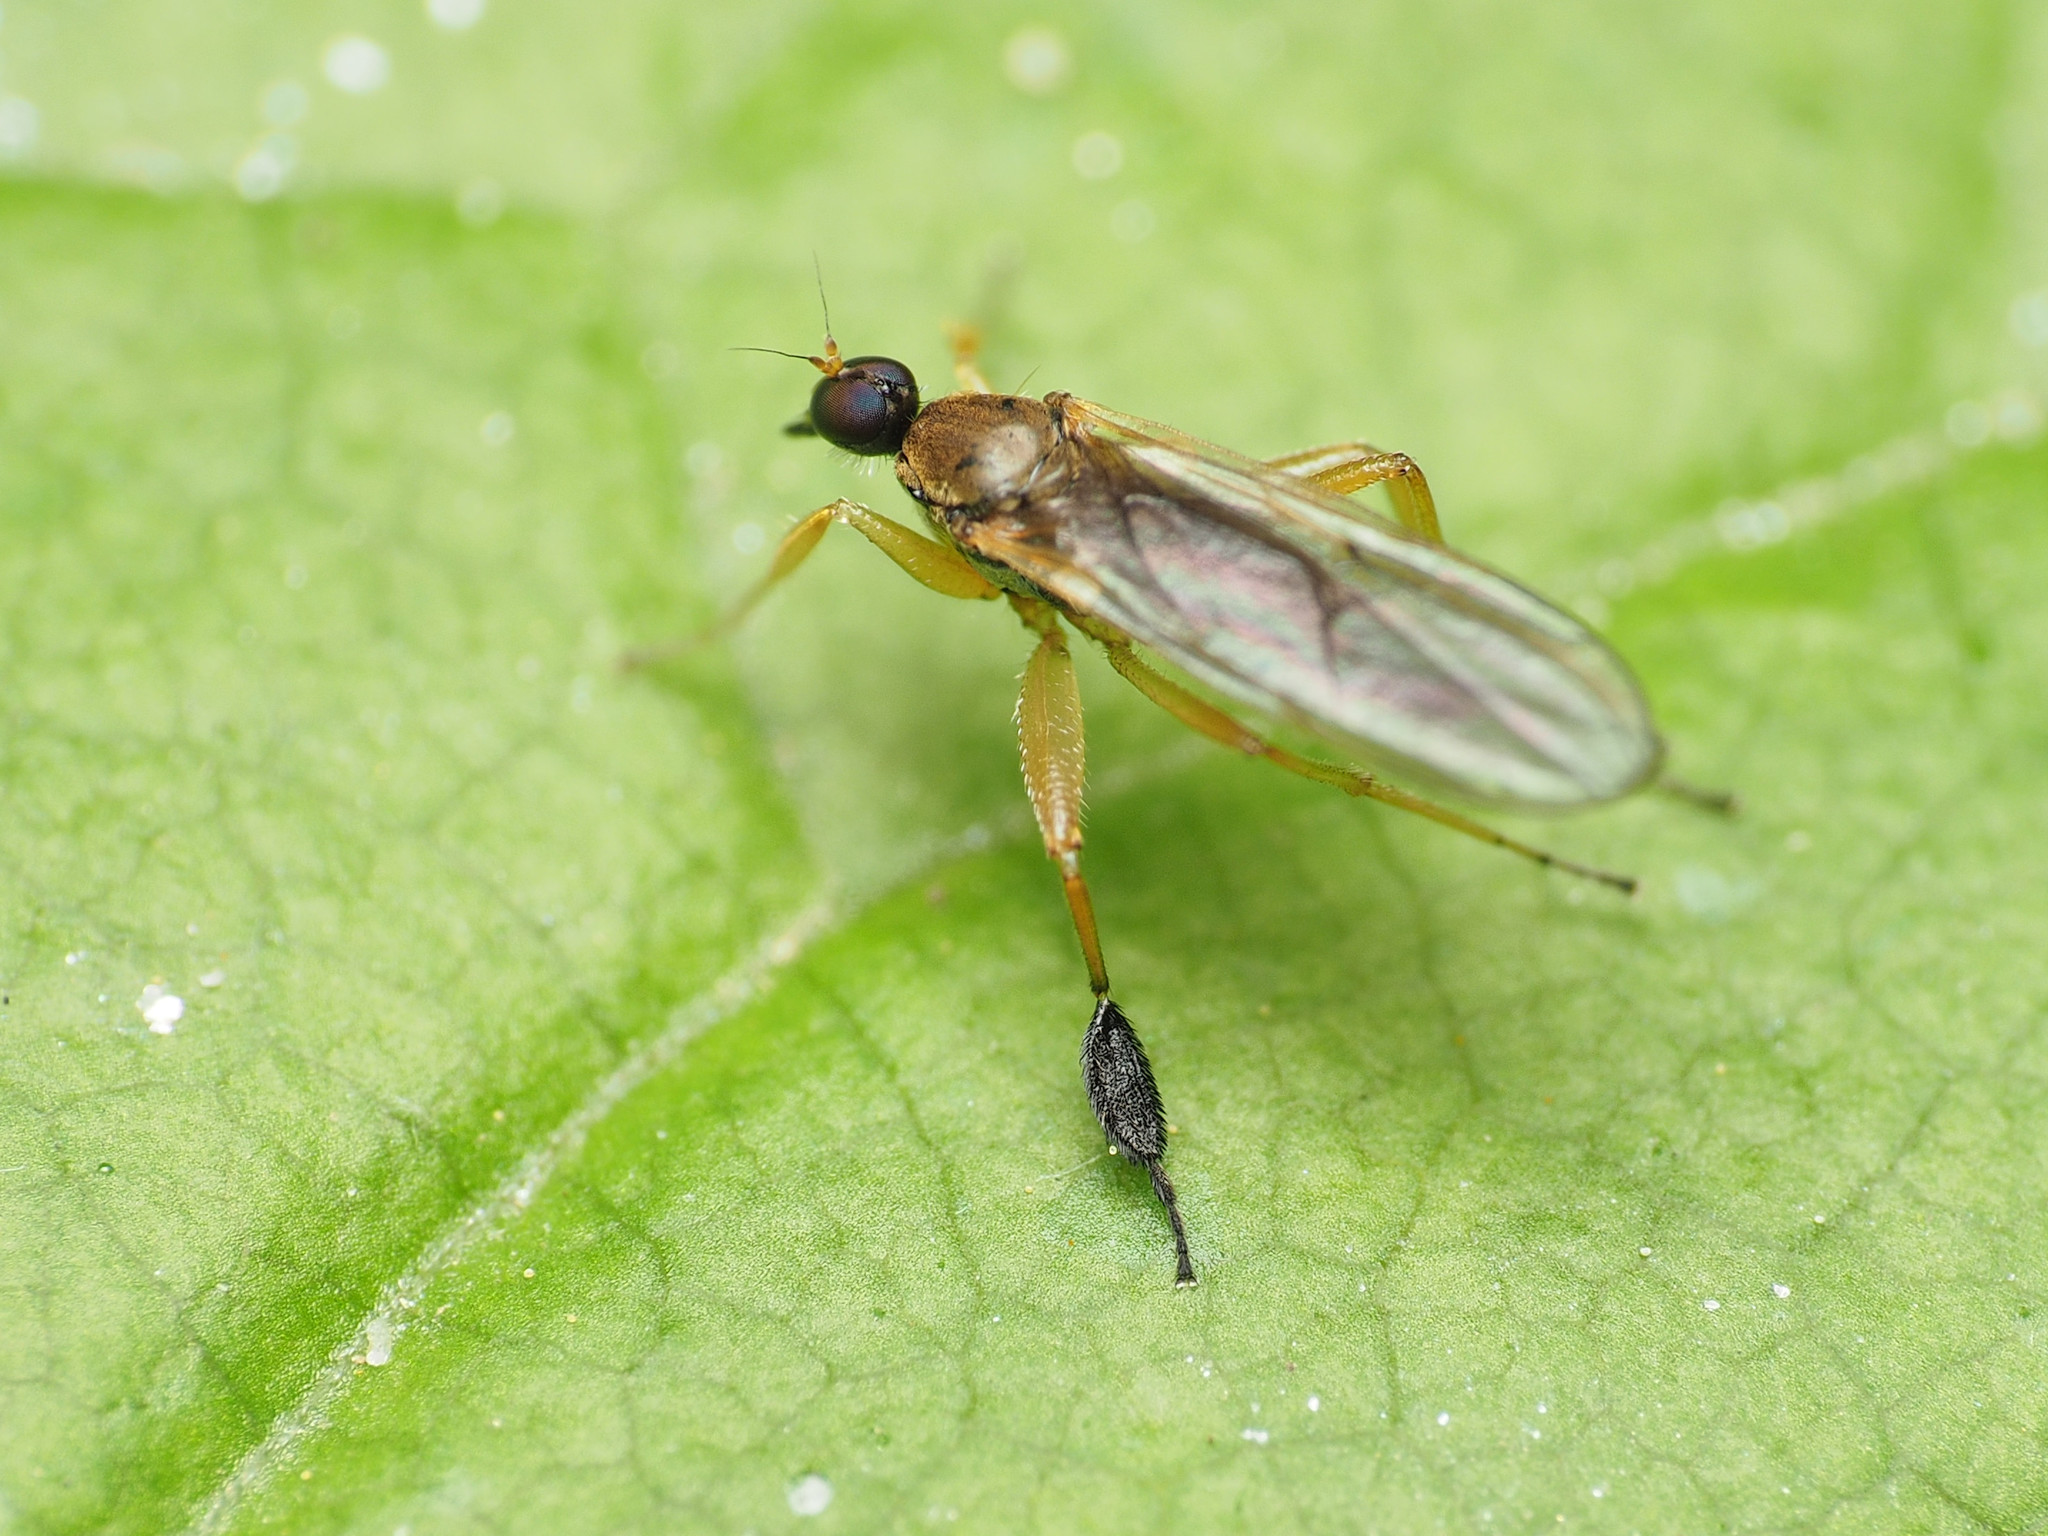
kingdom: Animalia
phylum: Arthropoda
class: Insecta
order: Diptera
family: Hybotidae
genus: Platypalpus
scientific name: Platypalpus discifer
